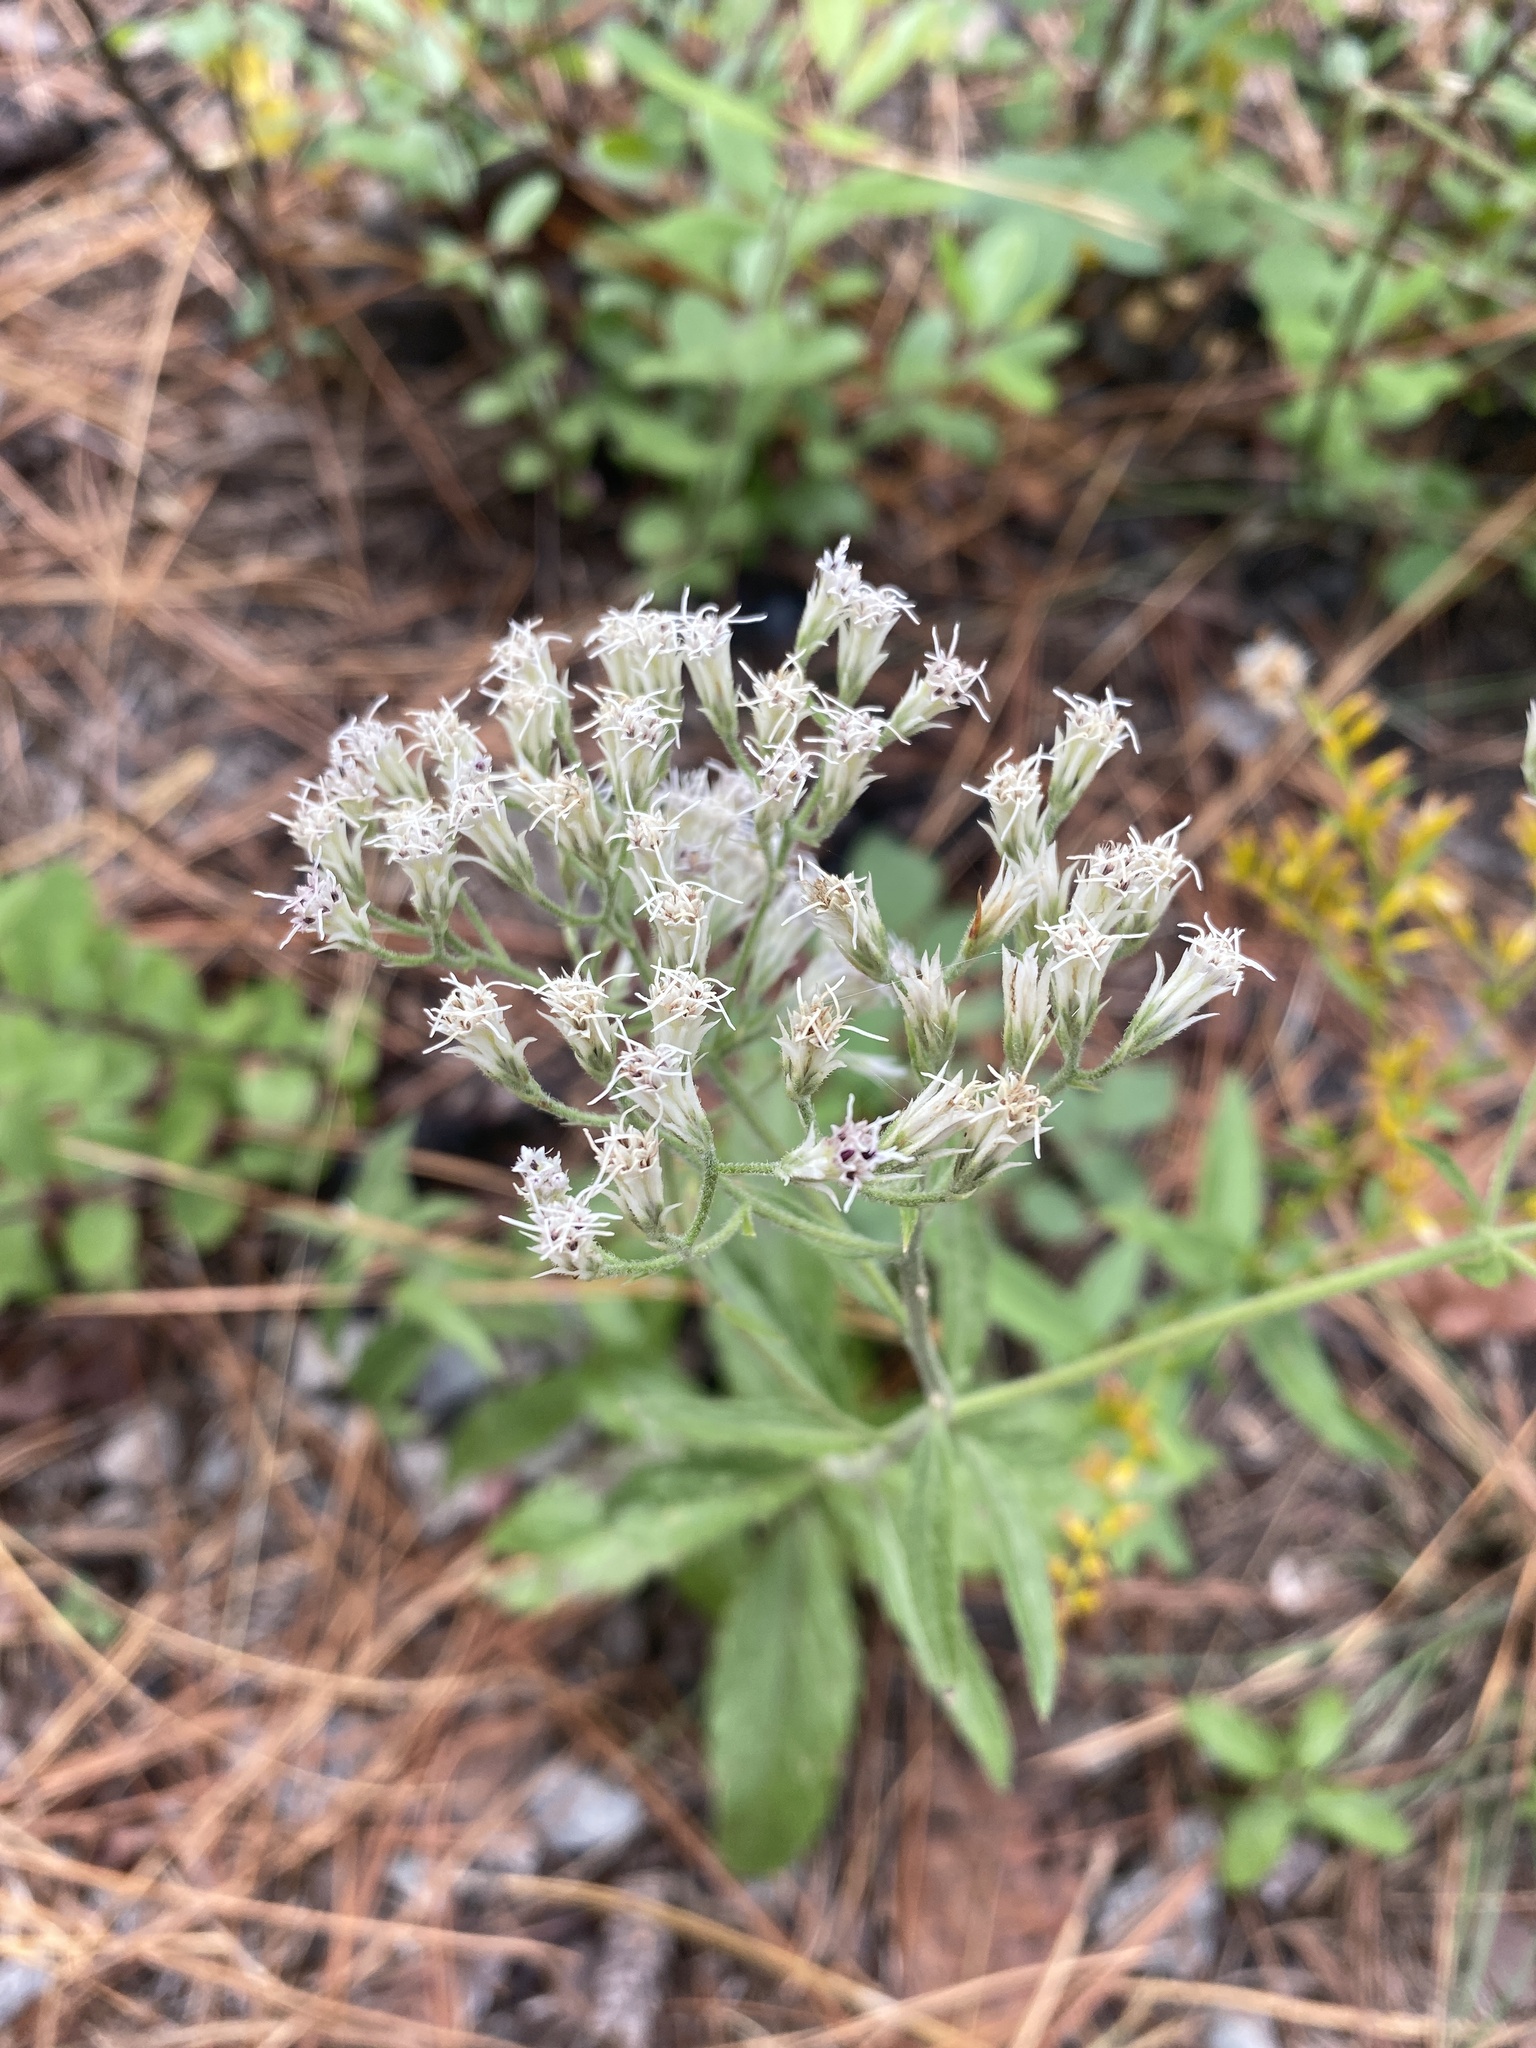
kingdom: Plantae
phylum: Tracheophyta
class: Magnoliopsida
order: Asterales
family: Asteraceae
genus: Eupatorium
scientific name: Eupatorium album
